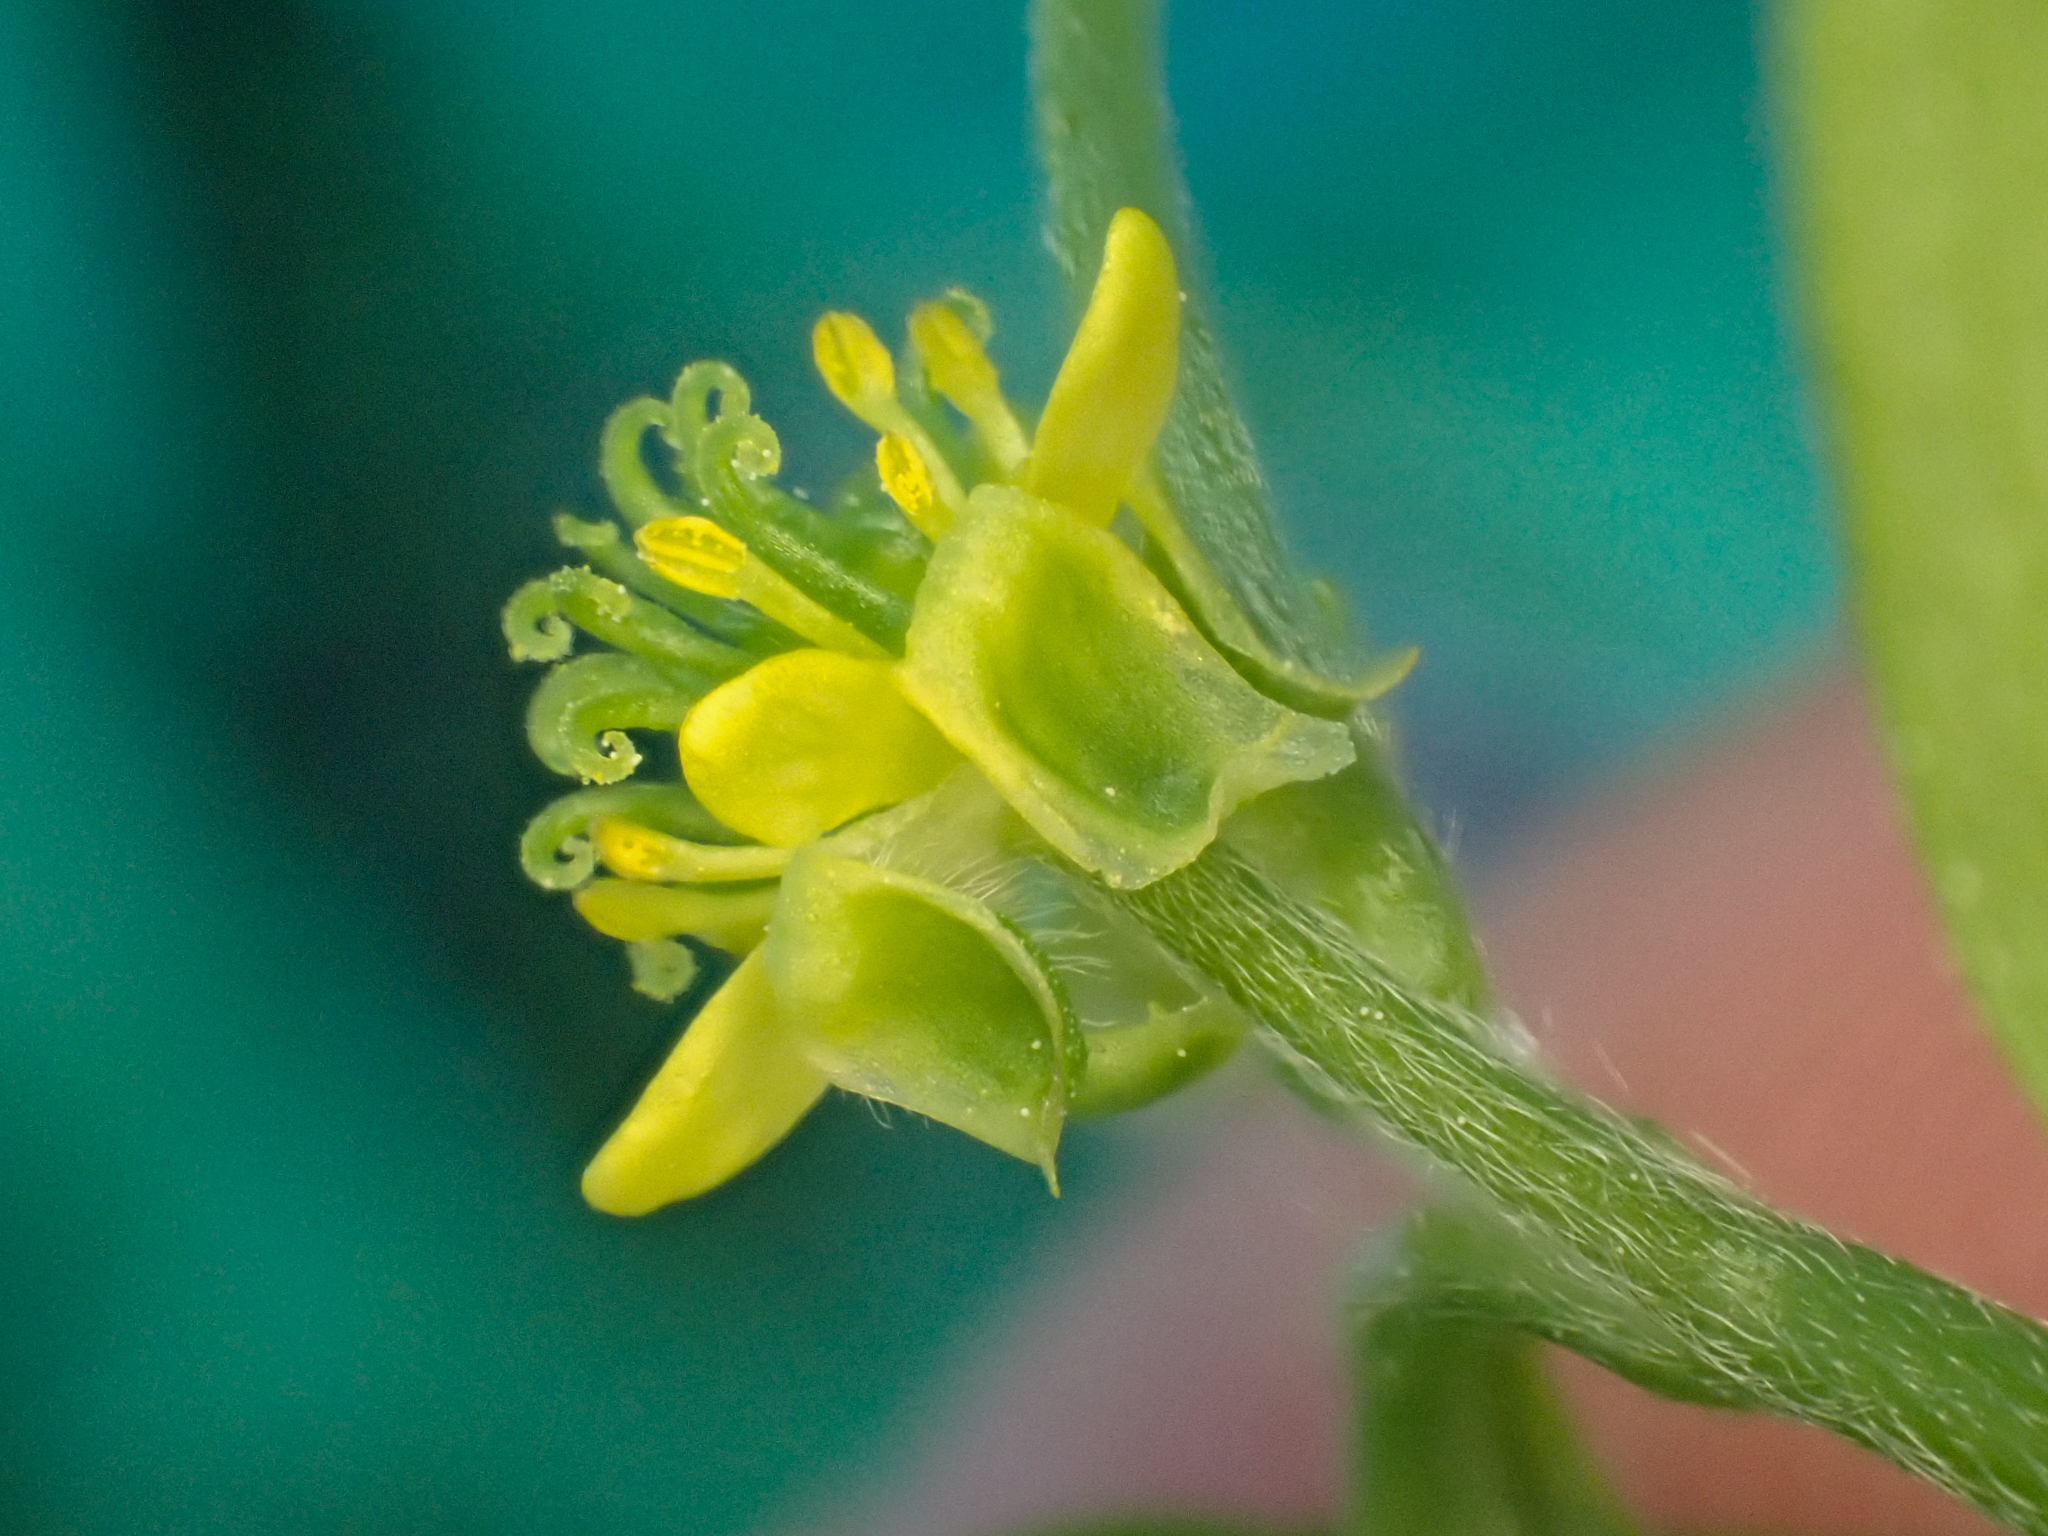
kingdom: Plantae
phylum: Tracheophyta
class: Magnoliopsida
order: Ranunculales
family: Ranunculaceae
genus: Ranunculus
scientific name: Ranunculus uncinatus
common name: Little buttercup
